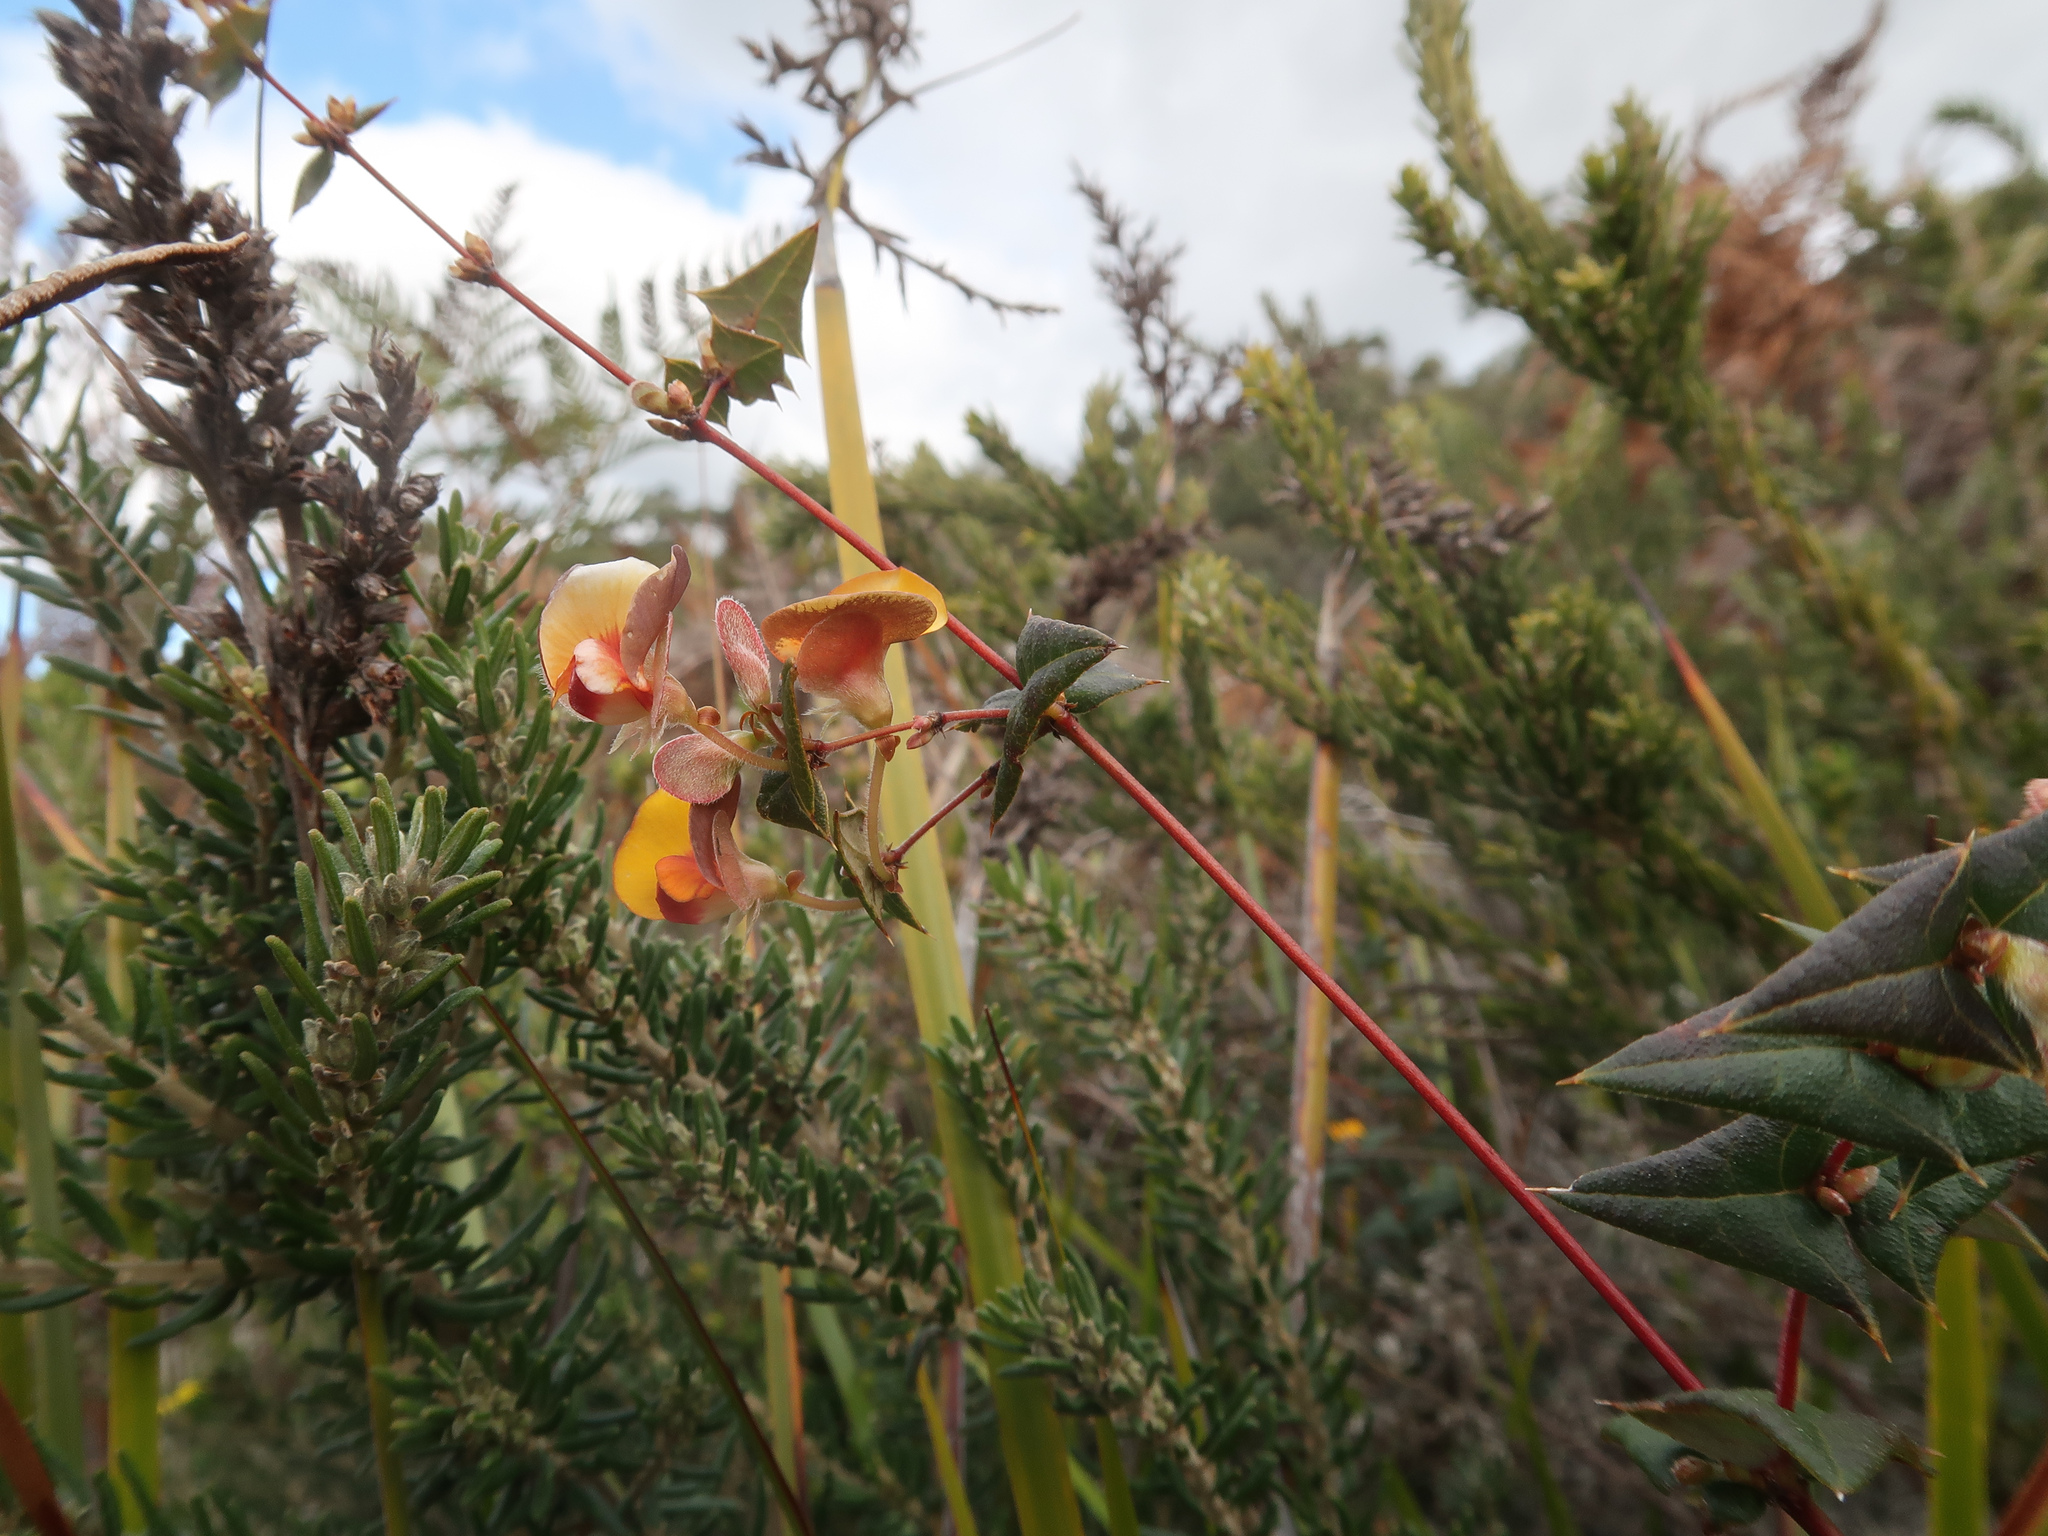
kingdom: Plantae
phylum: Tracheophyta
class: Magnoliopsida
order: Fabales
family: Fabaceae
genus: Platylobium
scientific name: Platylobium triangulare
